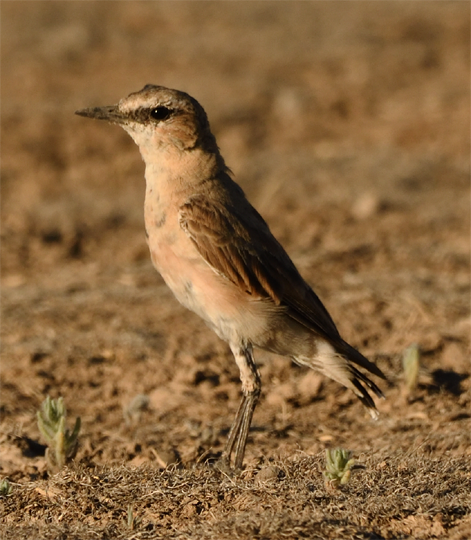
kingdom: Animalia
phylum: Chordata
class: Aves
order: Passeriformes
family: Muscicapidae
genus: Oenanthe
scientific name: Oenanthe isabellina
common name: Isabelline wheatear
